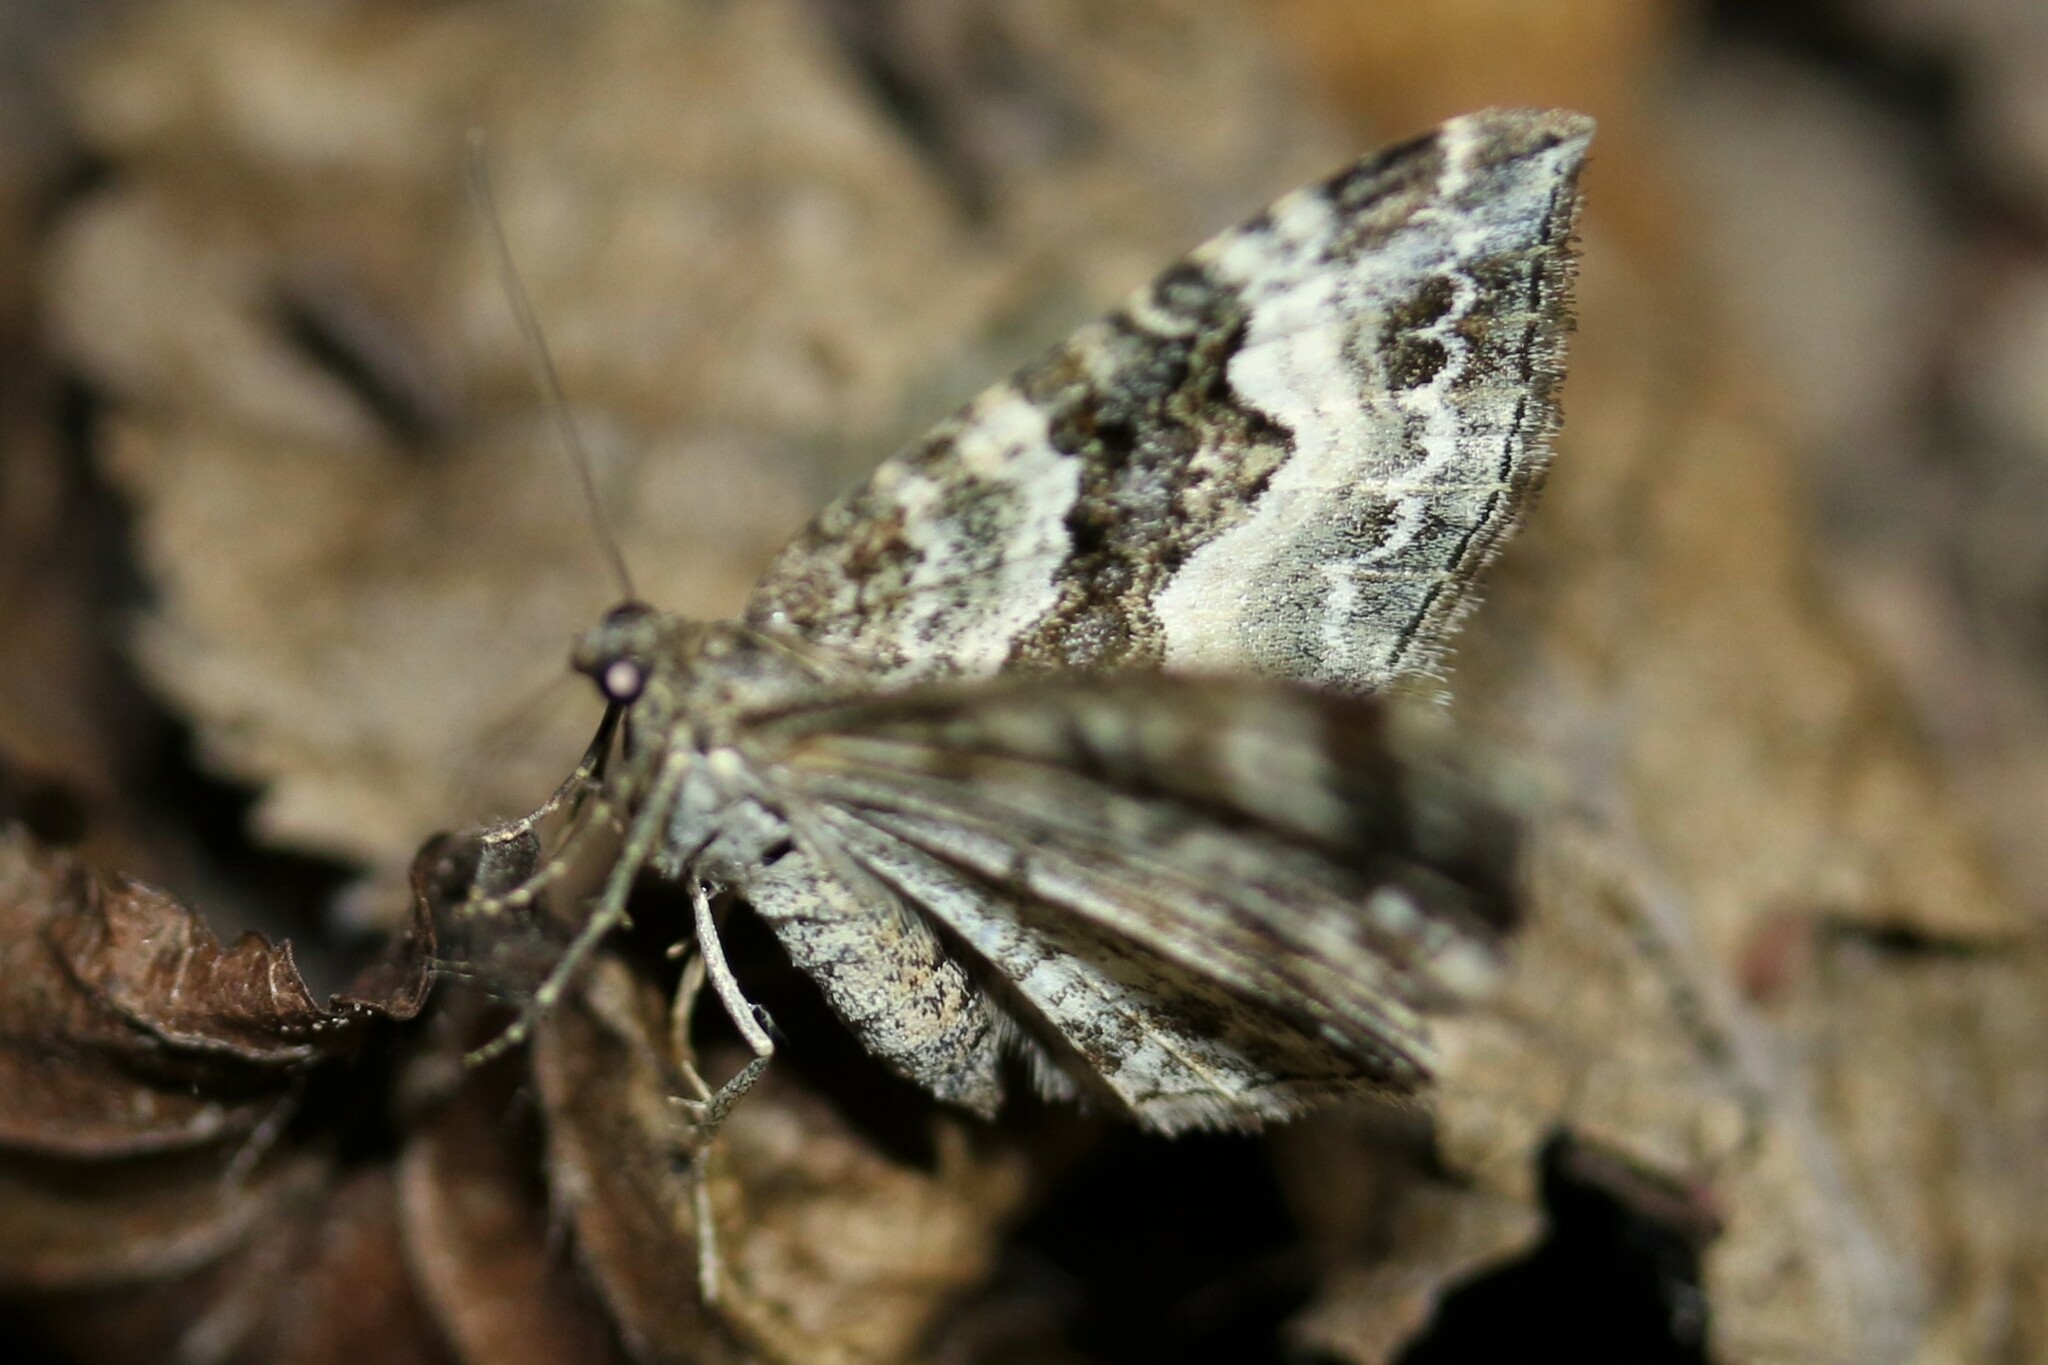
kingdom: Animalia
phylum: Arthropoda
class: Insecta
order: Lepidoptera
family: Geometridae
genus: Epirrhoe
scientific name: Epirrhoe alternata
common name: Common carpet
